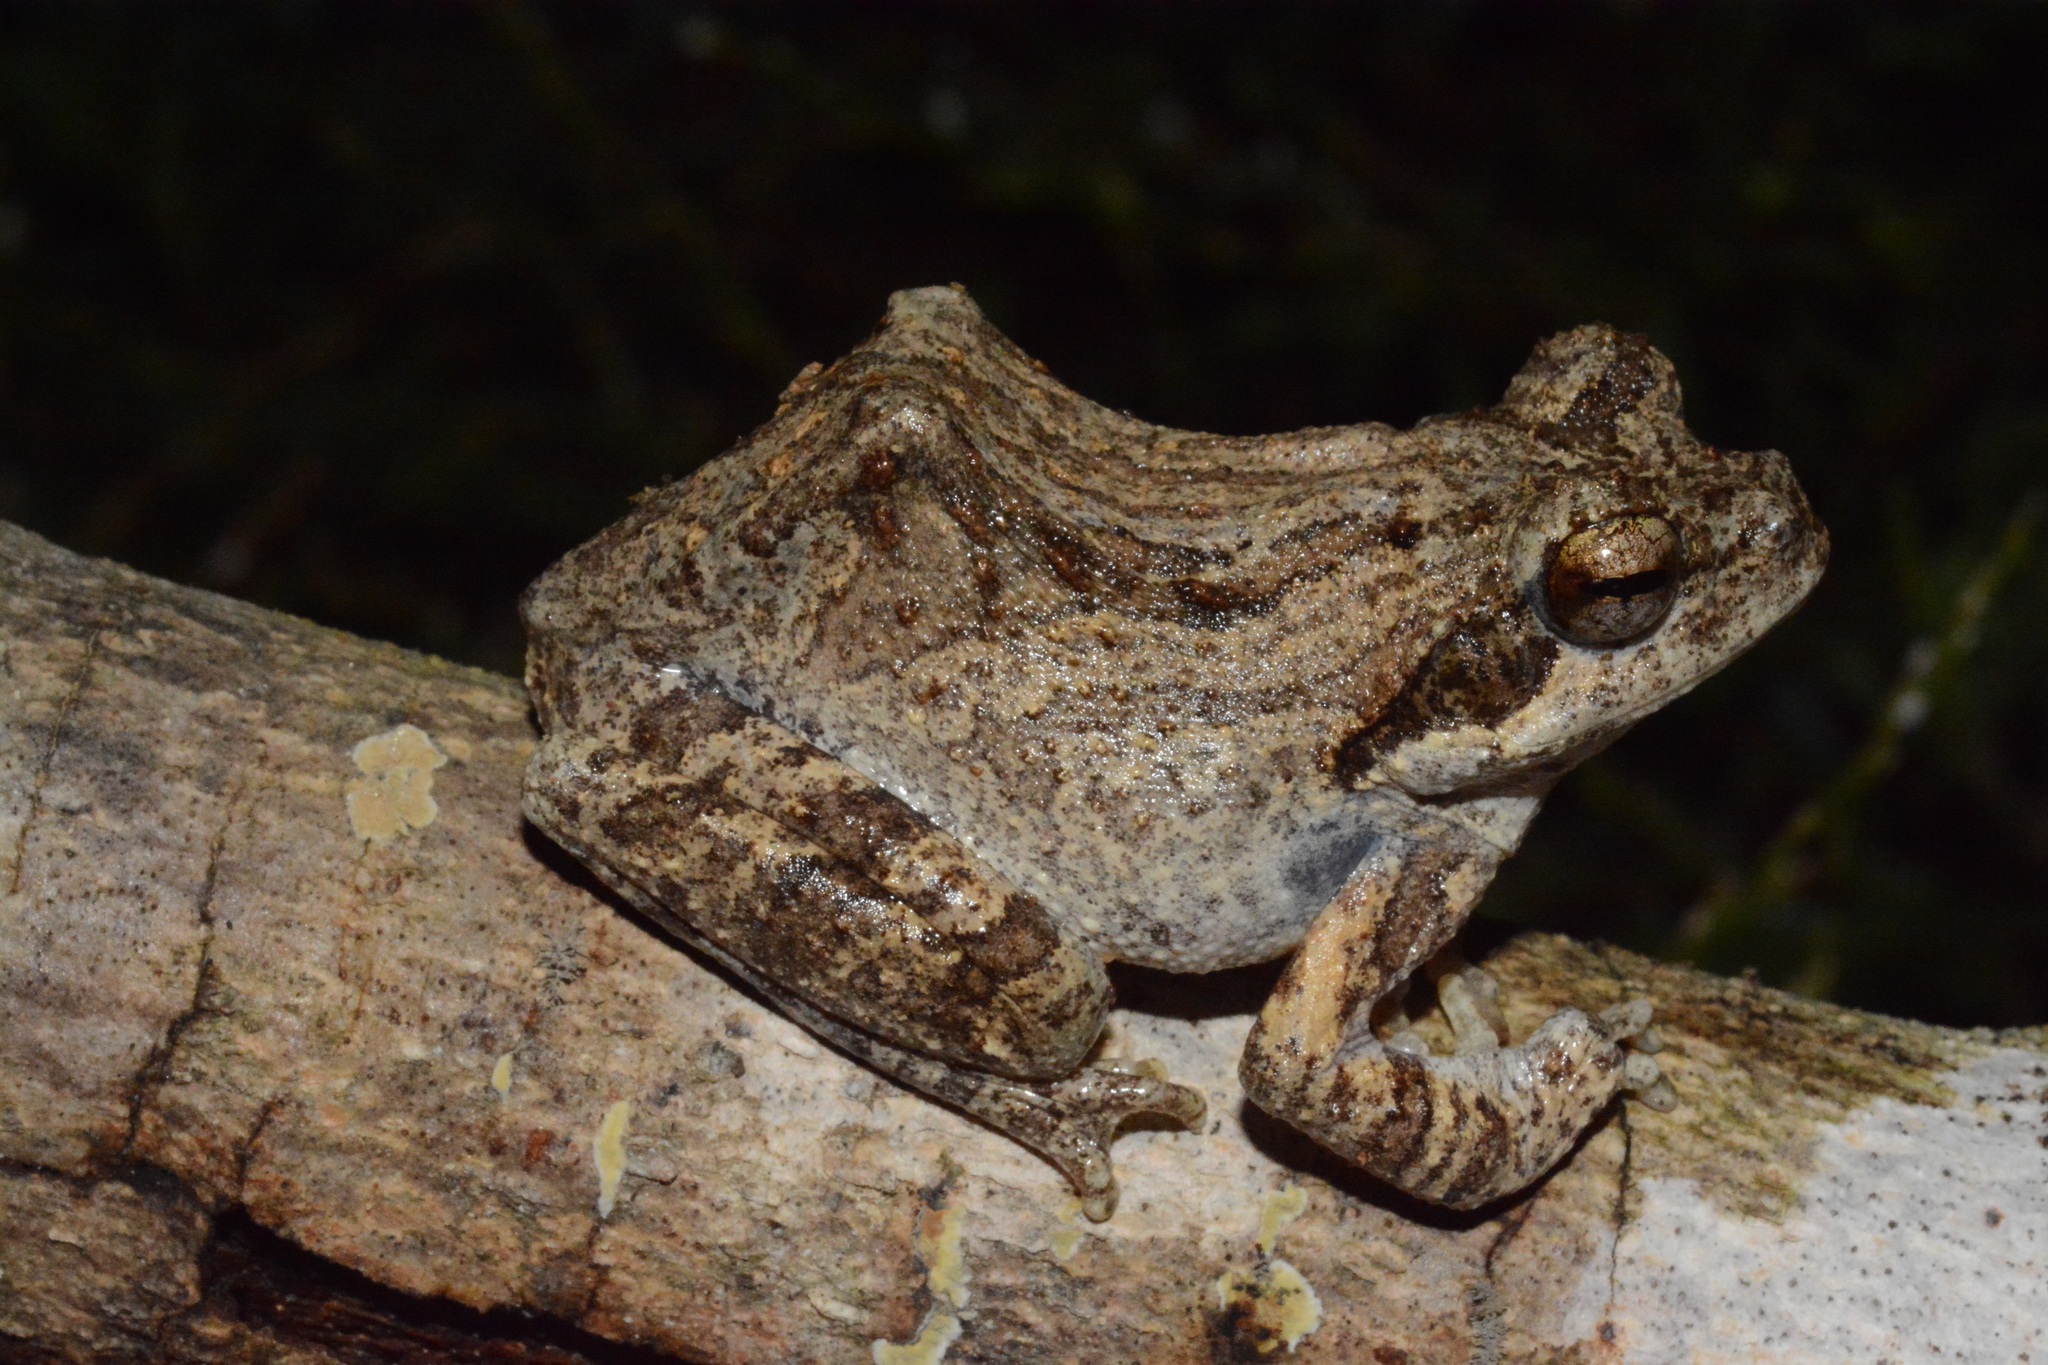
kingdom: Animalia
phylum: Chordata
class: Amphibia
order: Anura
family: Rhacophoridae
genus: Chiromantis
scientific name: Chiromantis petersii
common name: Central foam-nest tree frog
